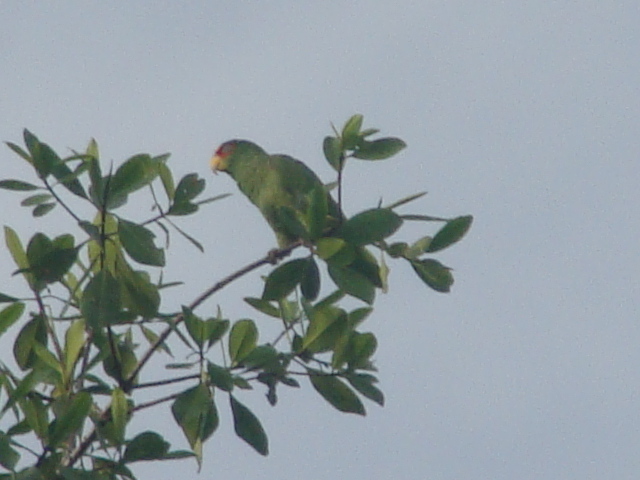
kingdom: Animalia
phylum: Chordata
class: Aves
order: Psittaciformes
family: Psittacidae
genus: Amazona
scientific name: Amazona albifrons
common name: White-fronted amazon
